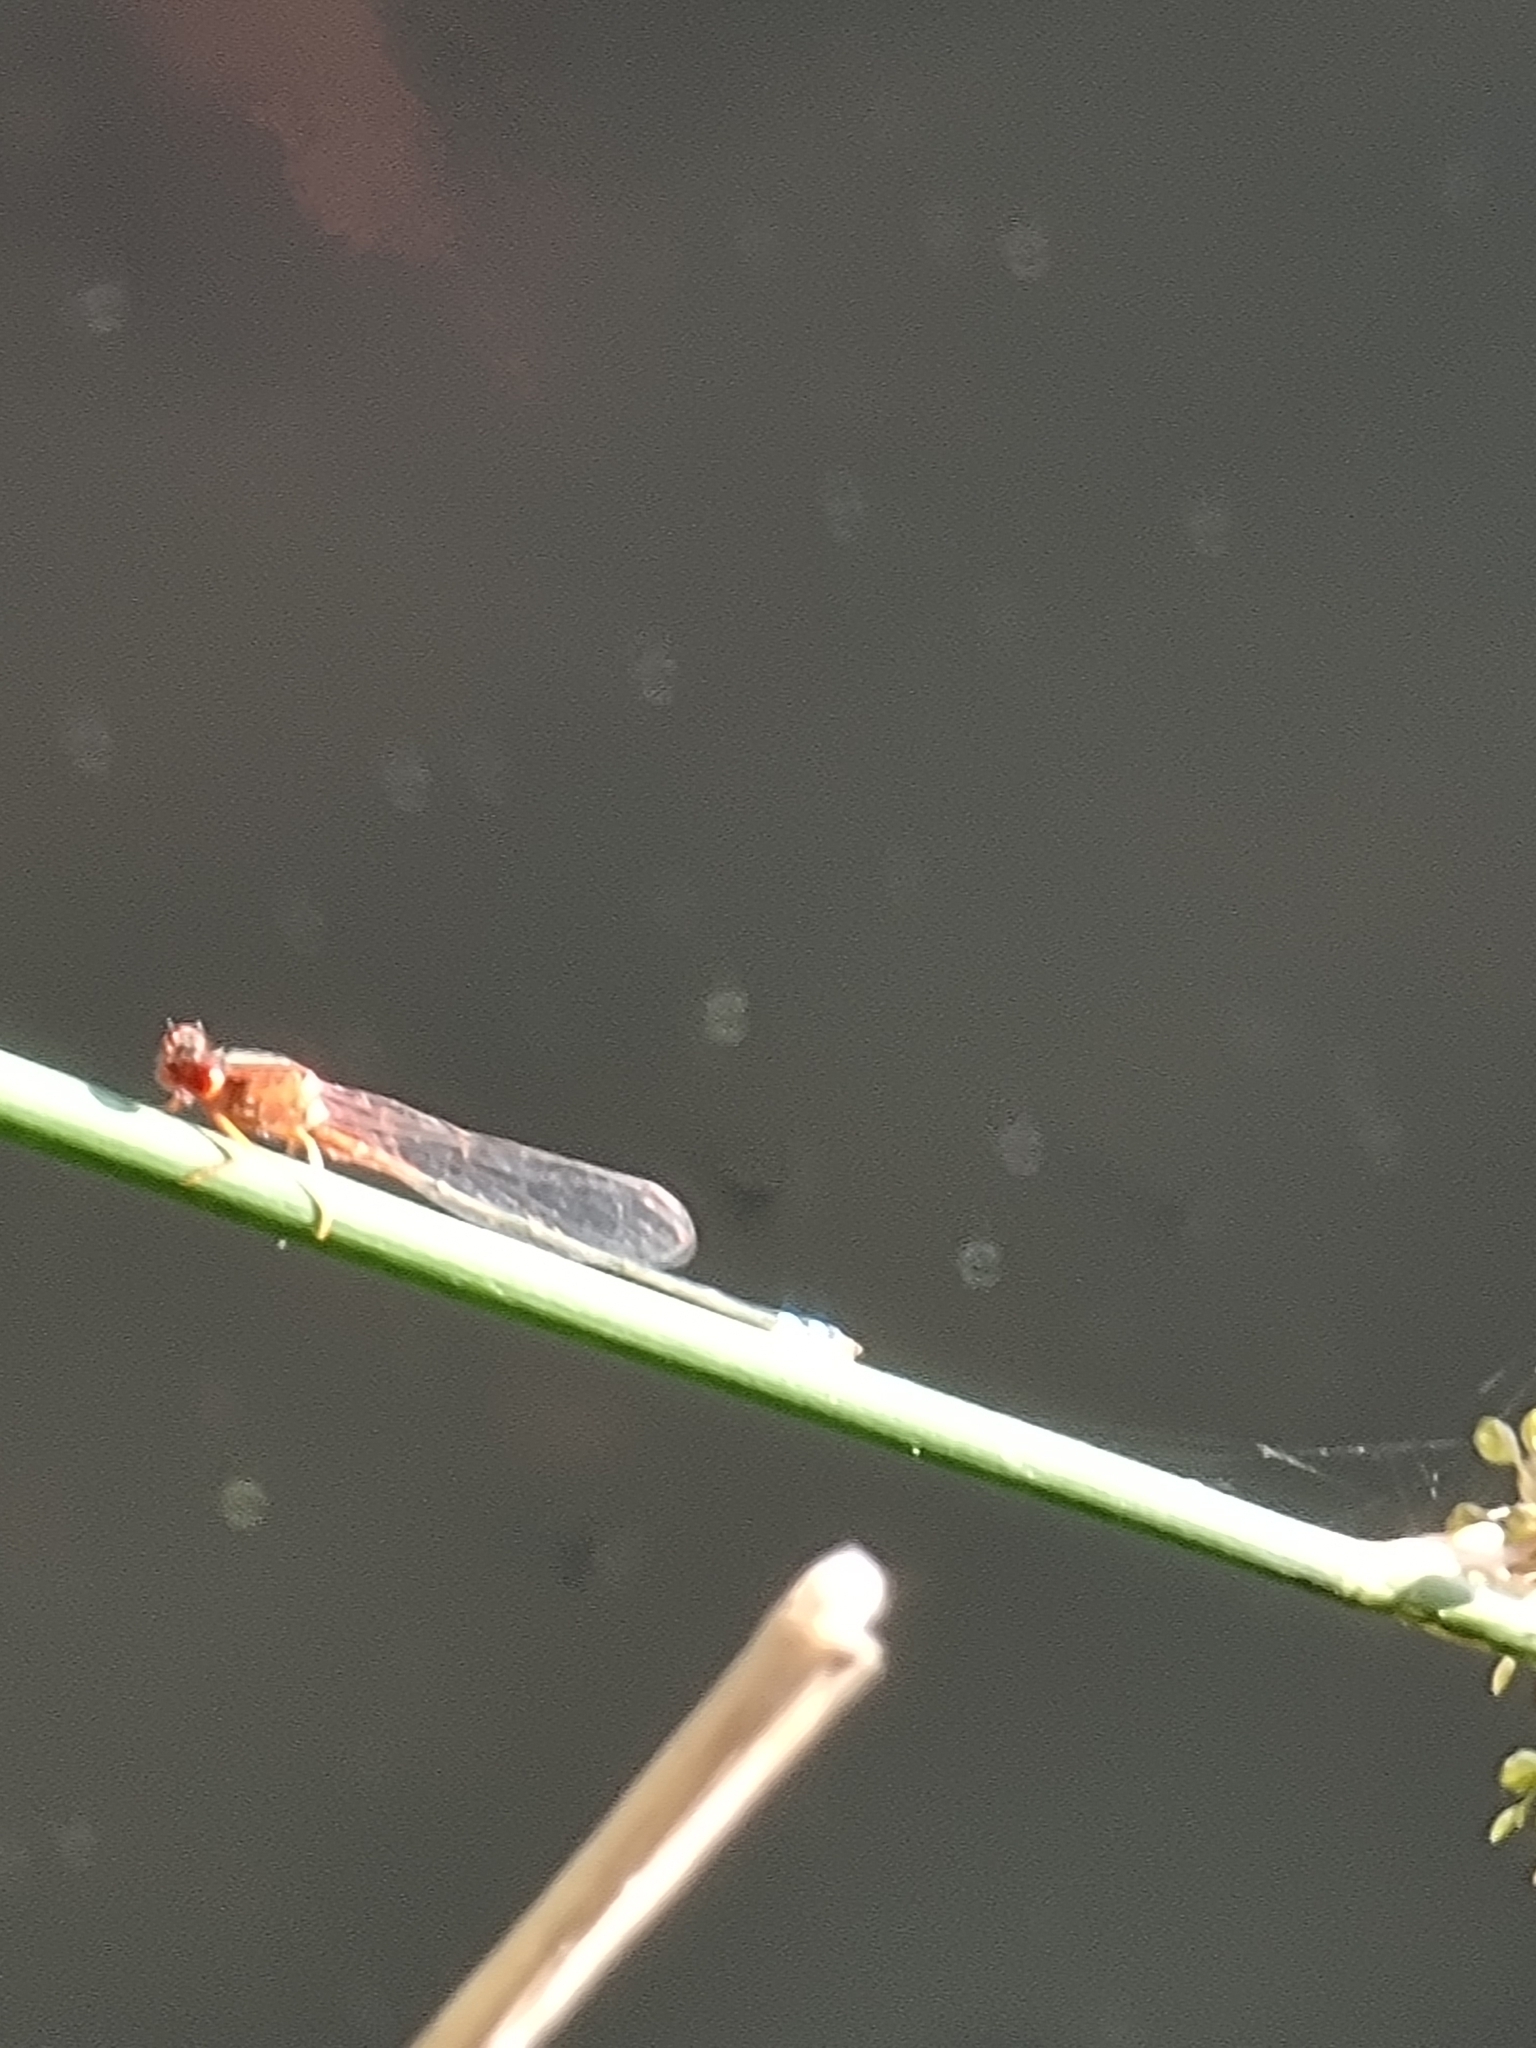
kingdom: Animalia
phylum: Arthropoda
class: Insecta
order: Odonata
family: Coenagrionidae
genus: Xanthagrion
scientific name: Xanthagrion erythroneurum
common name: Red and blue damsel
